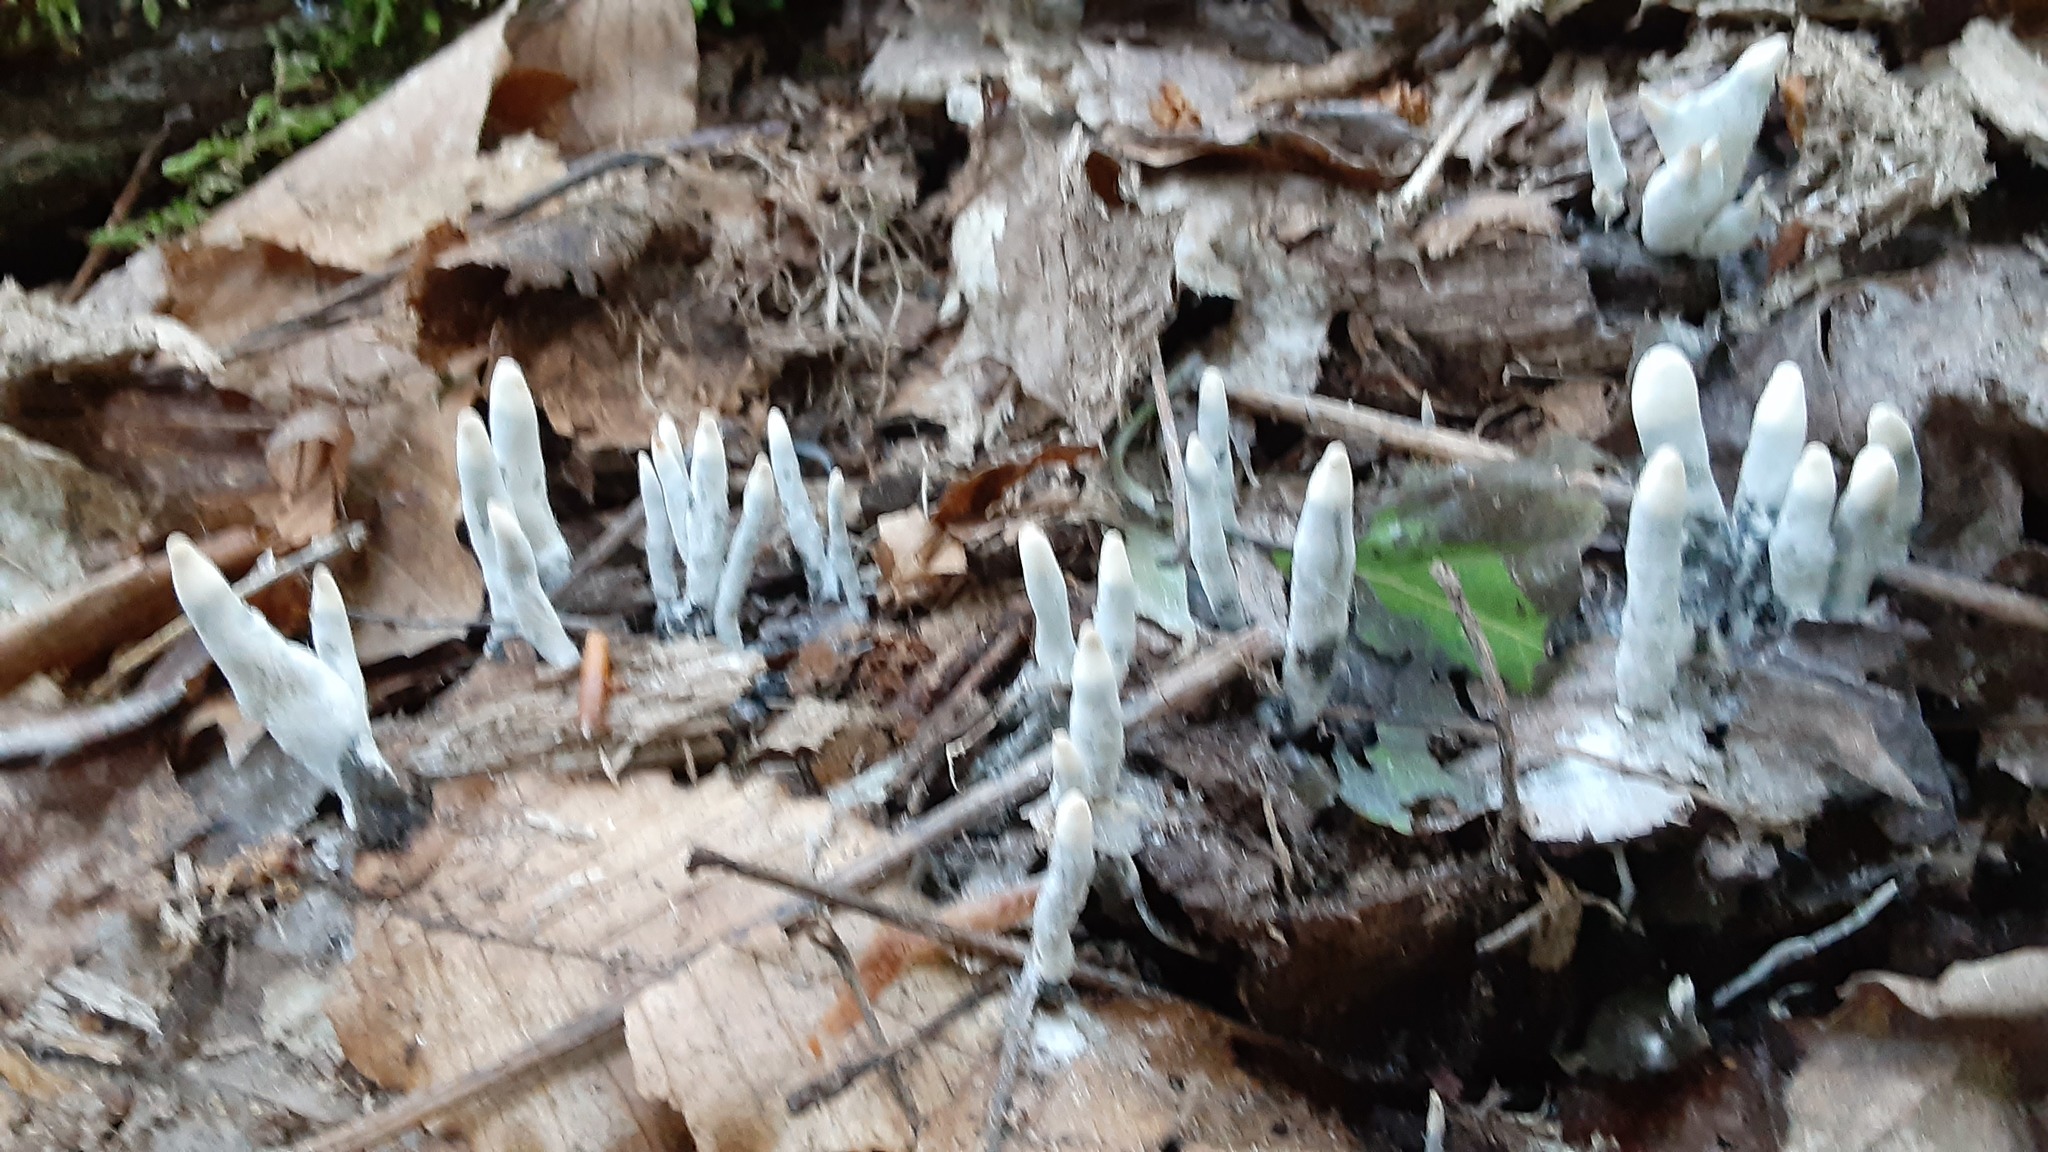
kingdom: Fungi
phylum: Ascomycota
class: Sordariomycetes
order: Xylariales
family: Xylariaceae
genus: Xylaria
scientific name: Xylaria polymorpha
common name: Dead man's fingers
